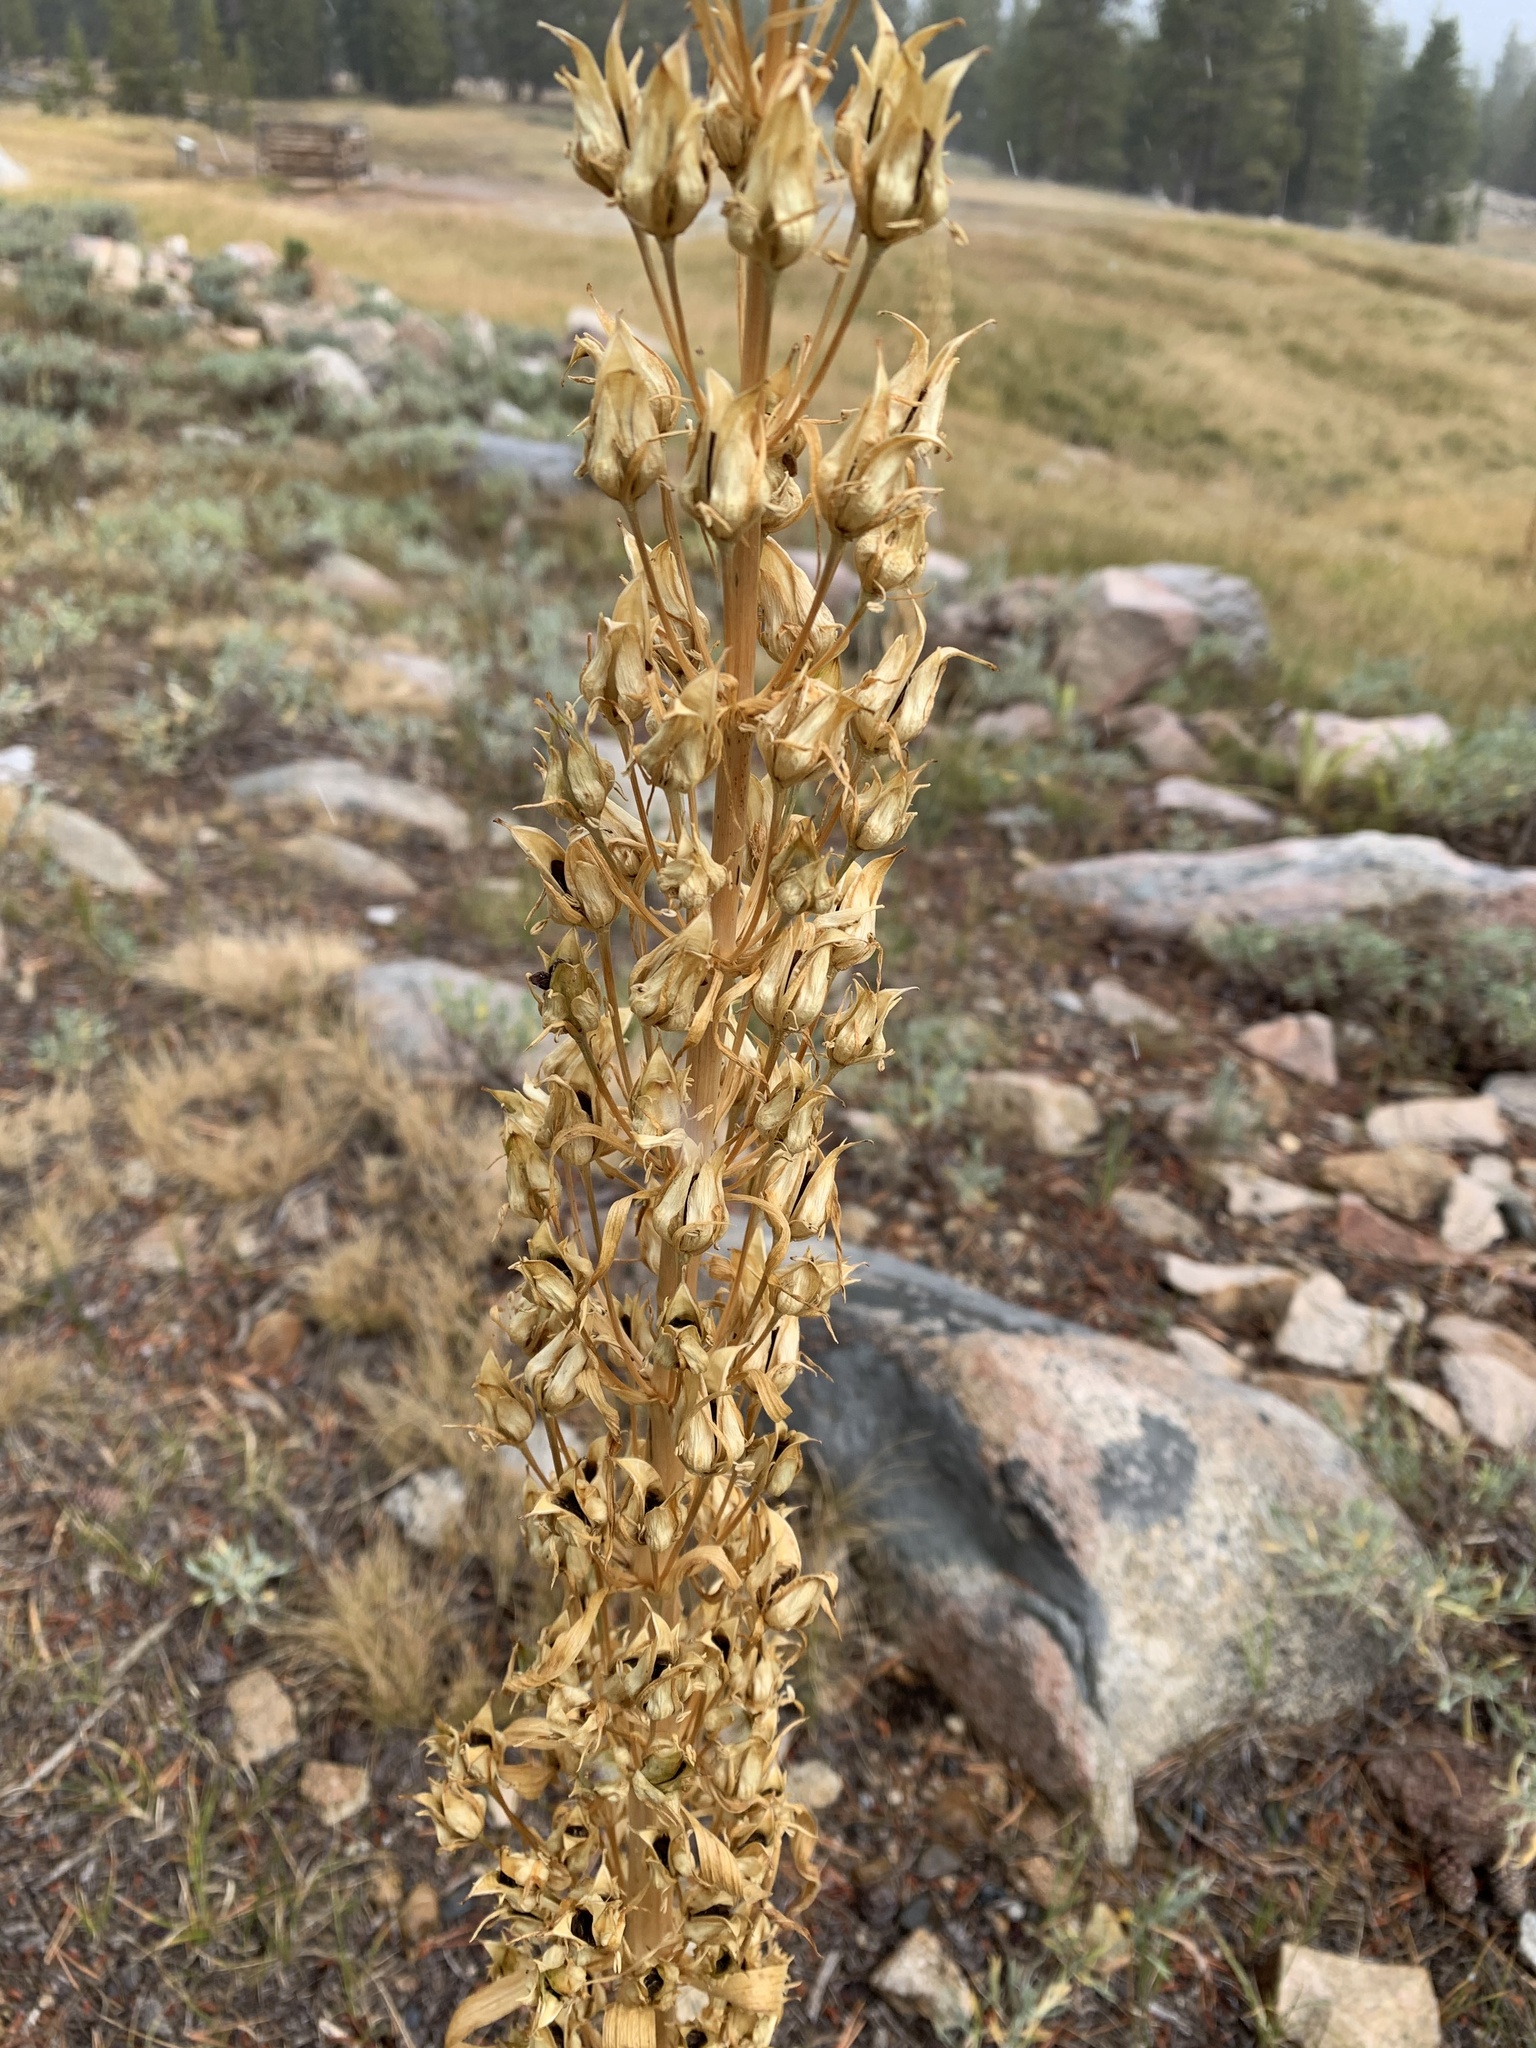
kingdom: Plantae
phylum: Tracheophyta
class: Magnoliopsida
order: Gentianales
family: Gentianaceae
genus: Frasera
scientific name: Frasera speciosa
